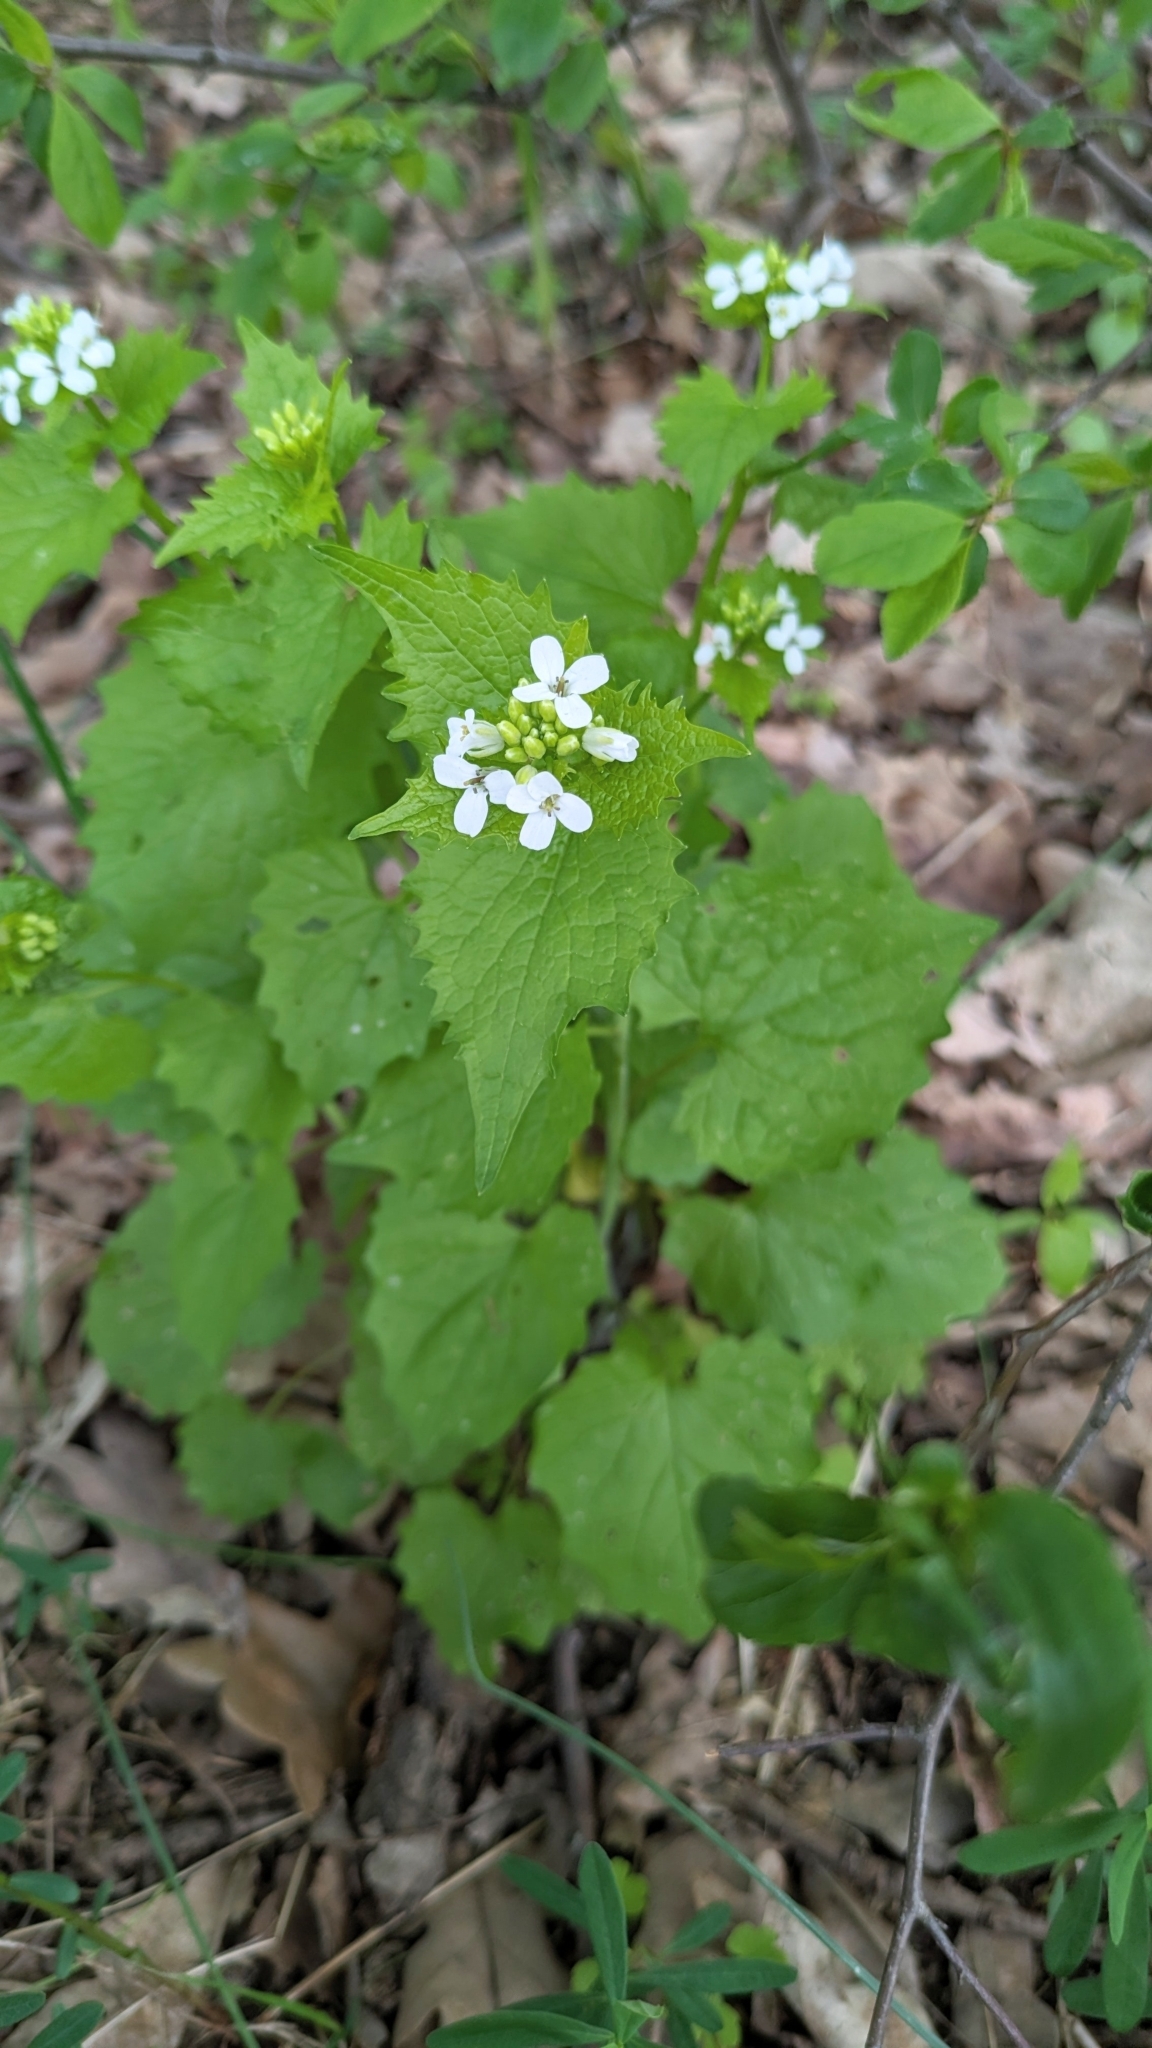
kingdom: Plantae
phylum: Tracheophyta
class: Magnoliopsida
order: Brassicales
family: Brassicaceae
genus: Alliaria
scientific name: Alliaria petiolata
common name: Garlic mustard
